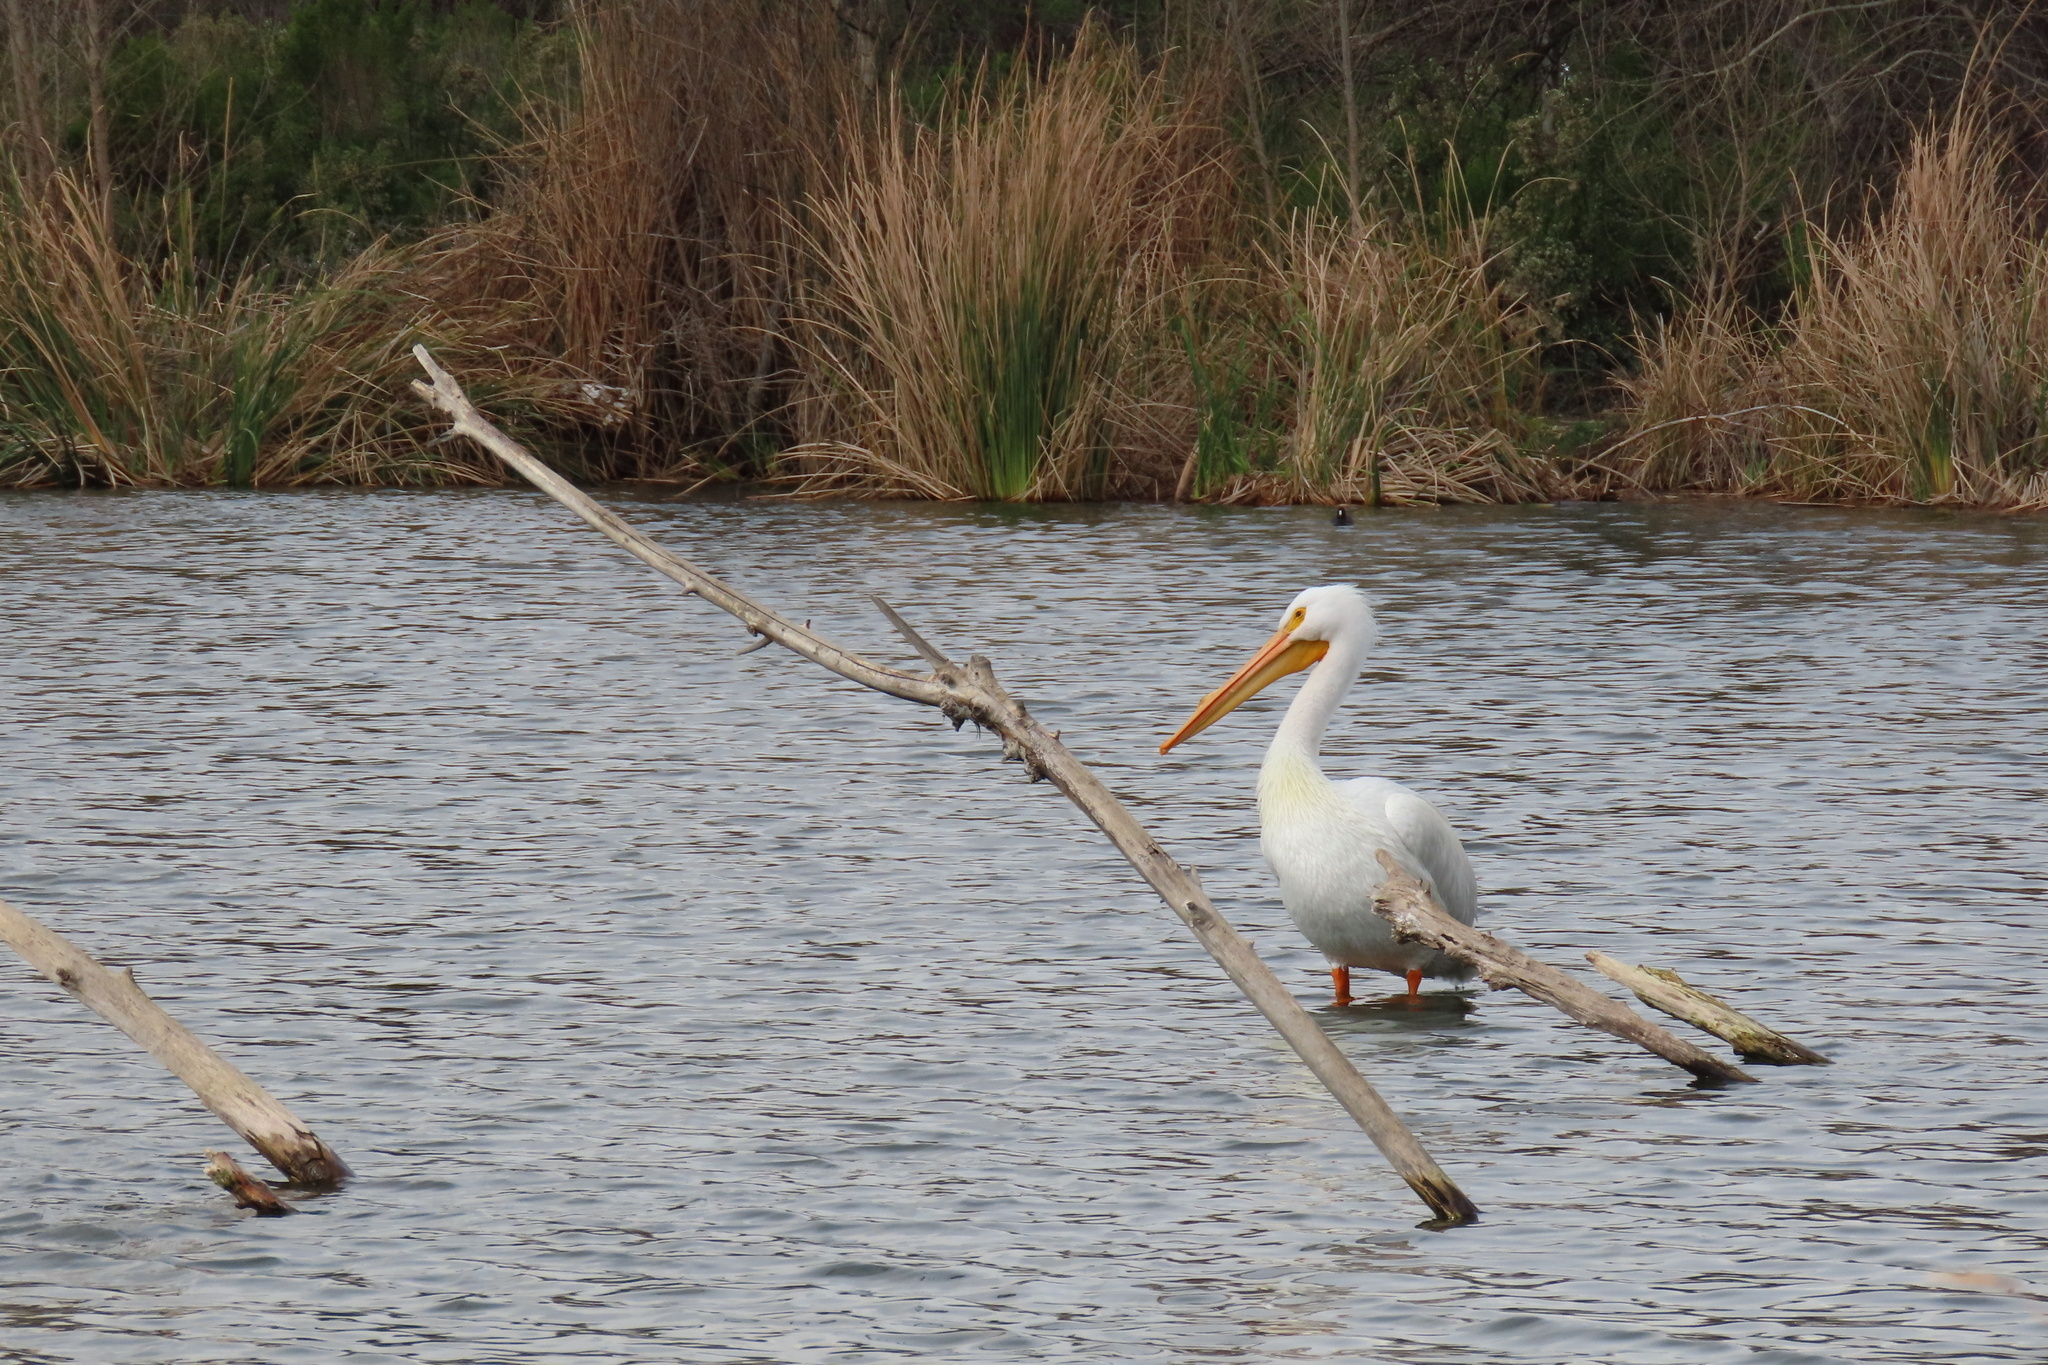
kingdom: Animalia
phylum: Chordata
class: Aves
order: Pelecaniformes
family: Pelecanidae
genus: Pelecanus
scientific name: Pelecanus erythrorhynchos
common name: American white pelican
